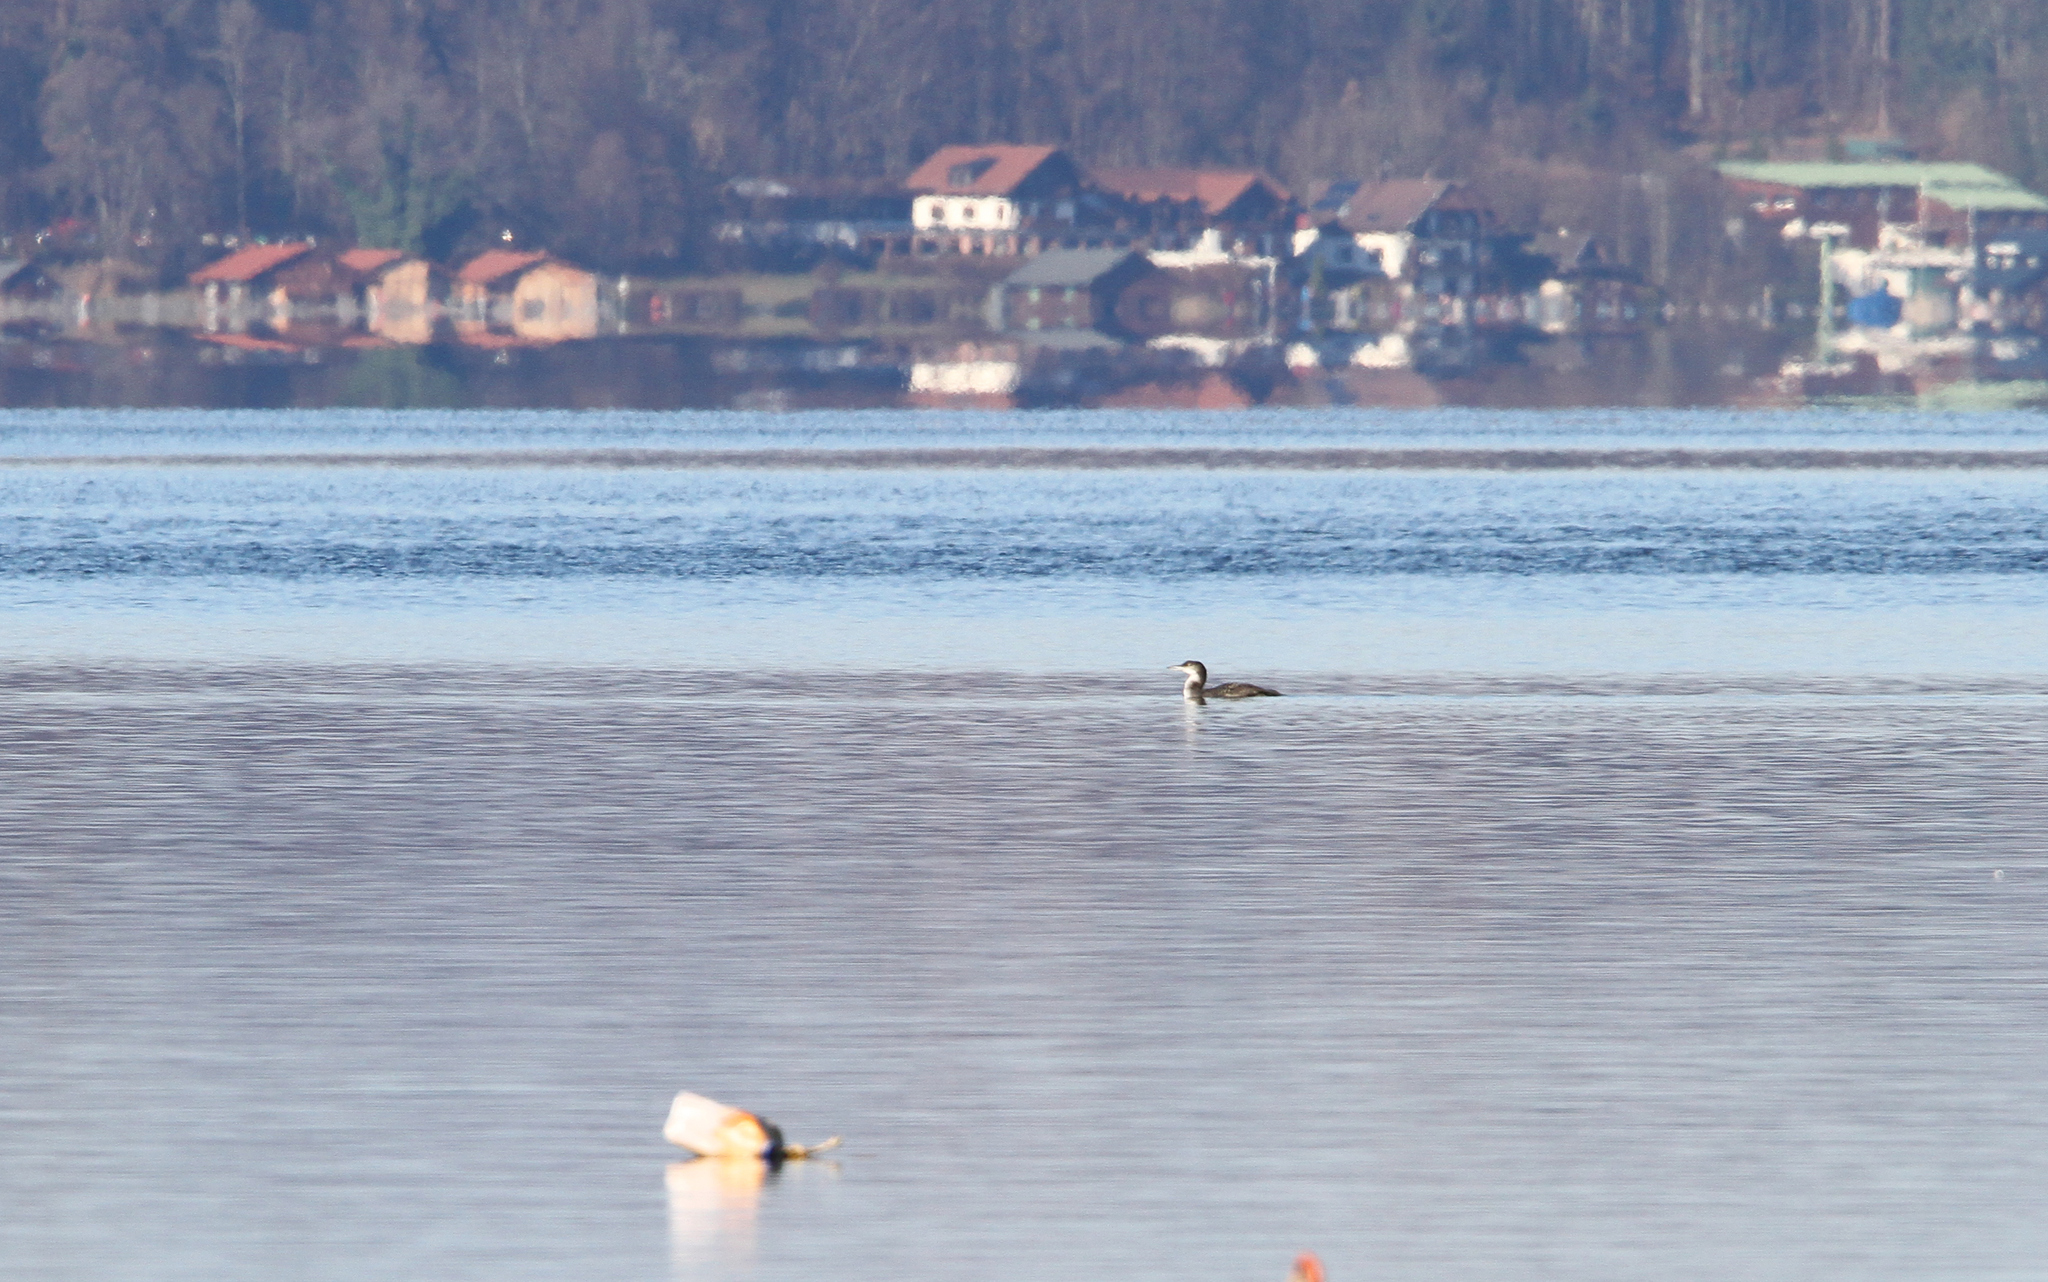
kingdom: Animalia
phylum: Chordata
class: Aves
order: Gaviiformes
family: Gaviidae
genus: Gavia
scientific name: Gavia immer
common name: Common loon
